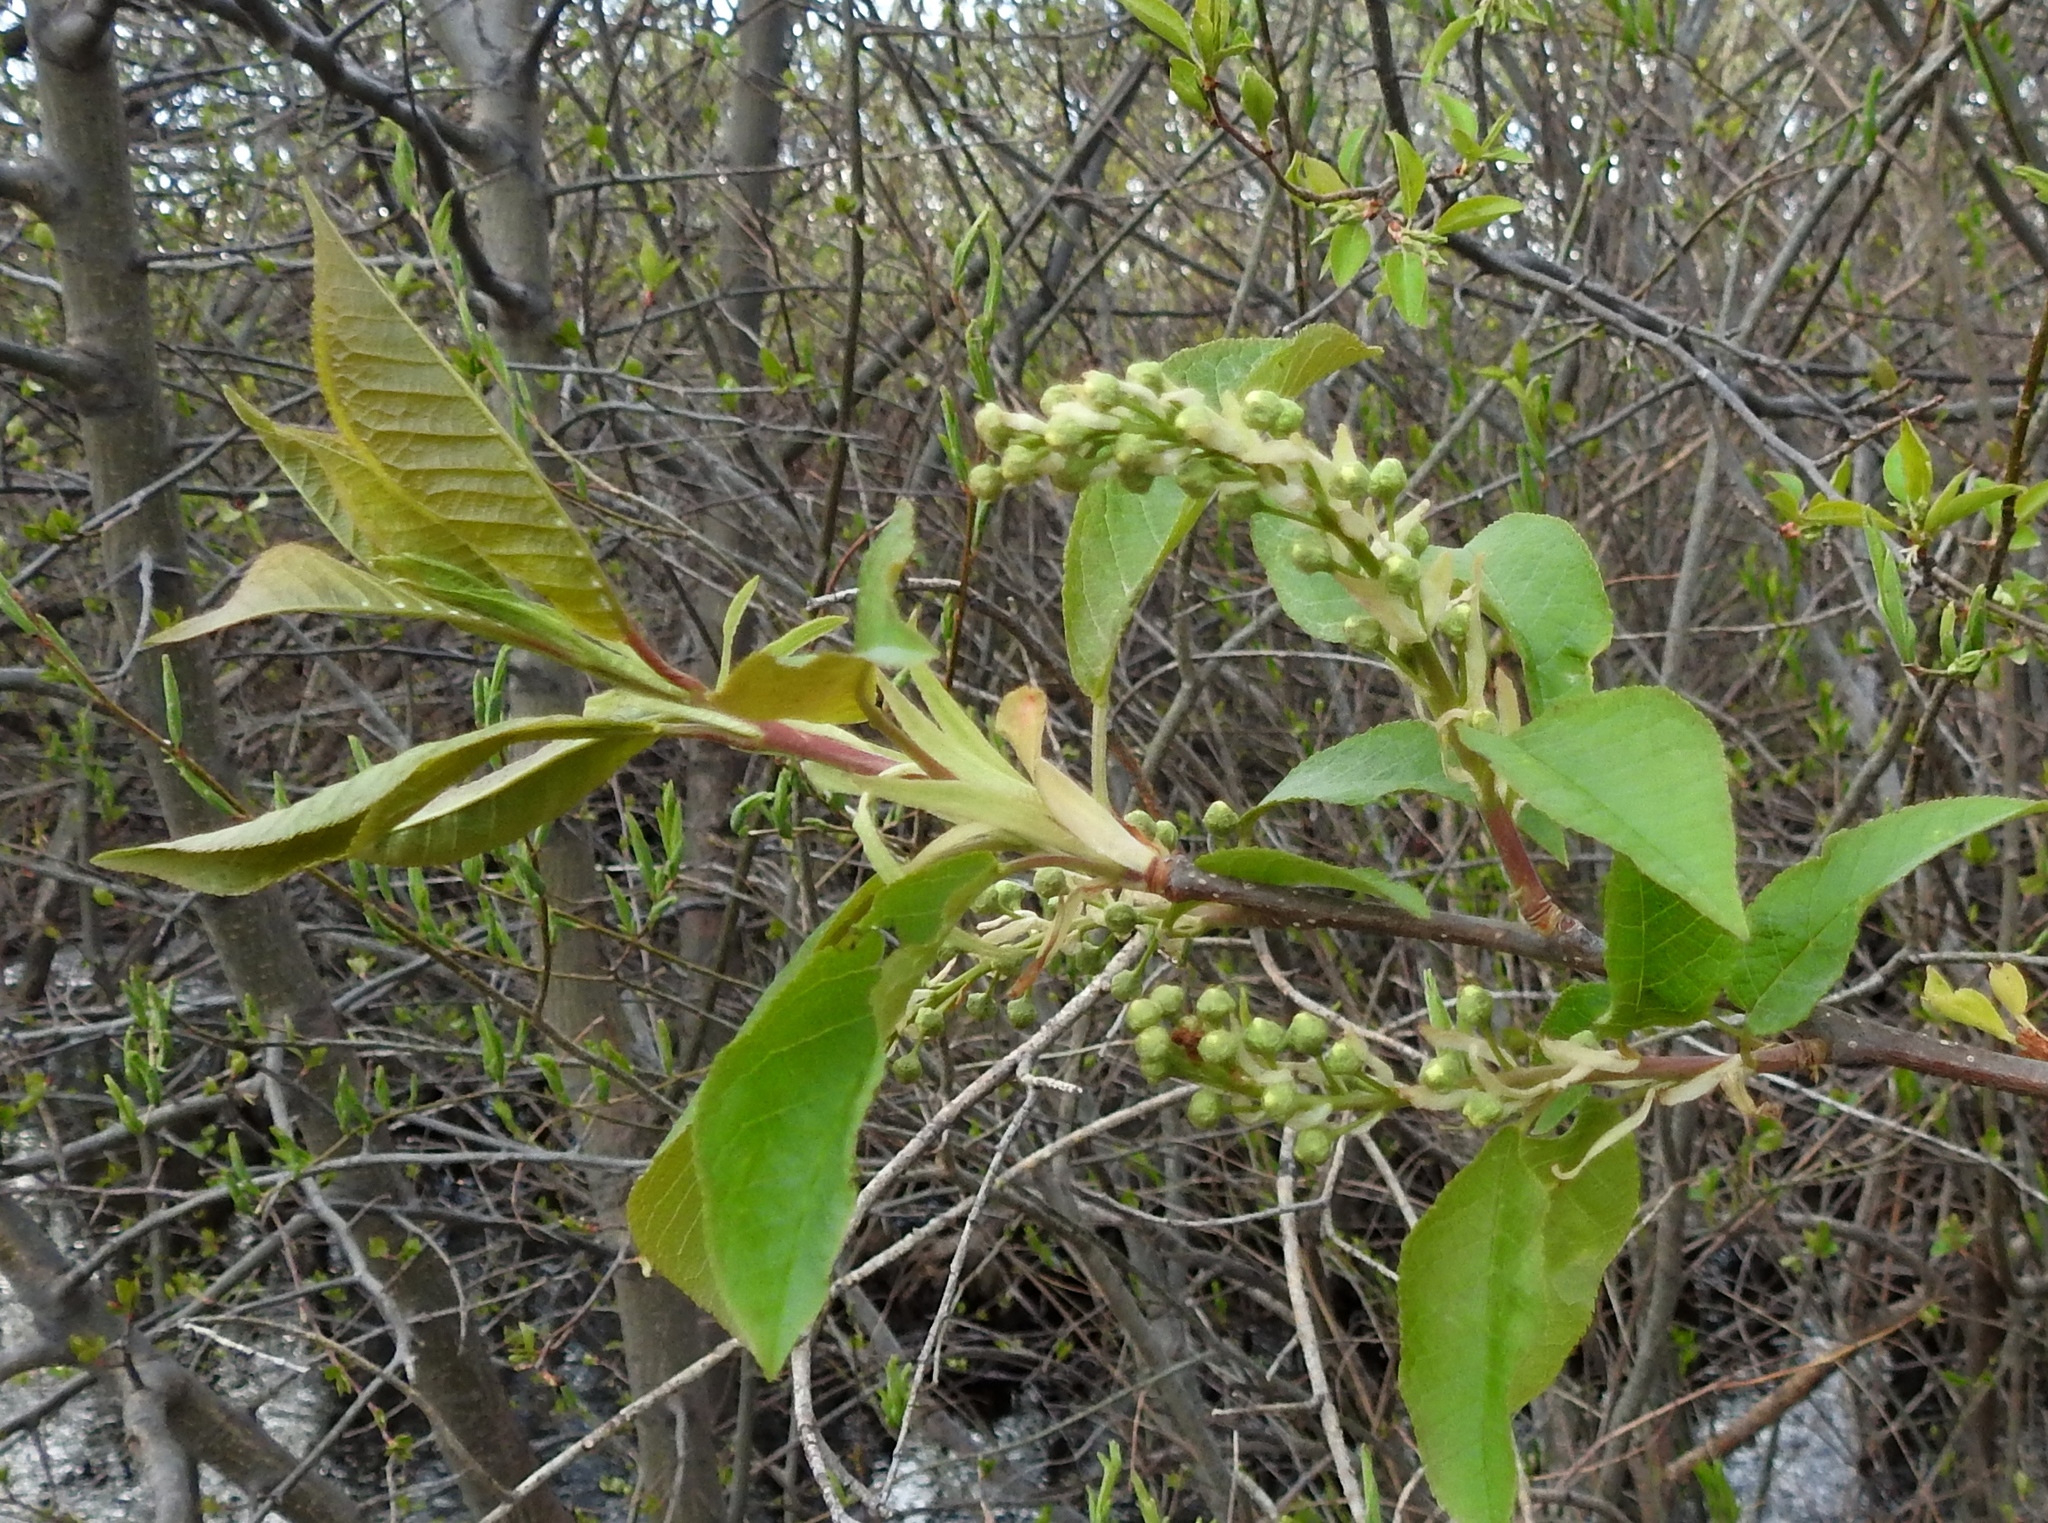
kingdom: Plantae
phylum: Tracheophyta
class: Magnoliopsida
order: Rosales
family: Rosaceae
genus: Prunus
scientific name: Prunus padus
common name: Bird cherry
